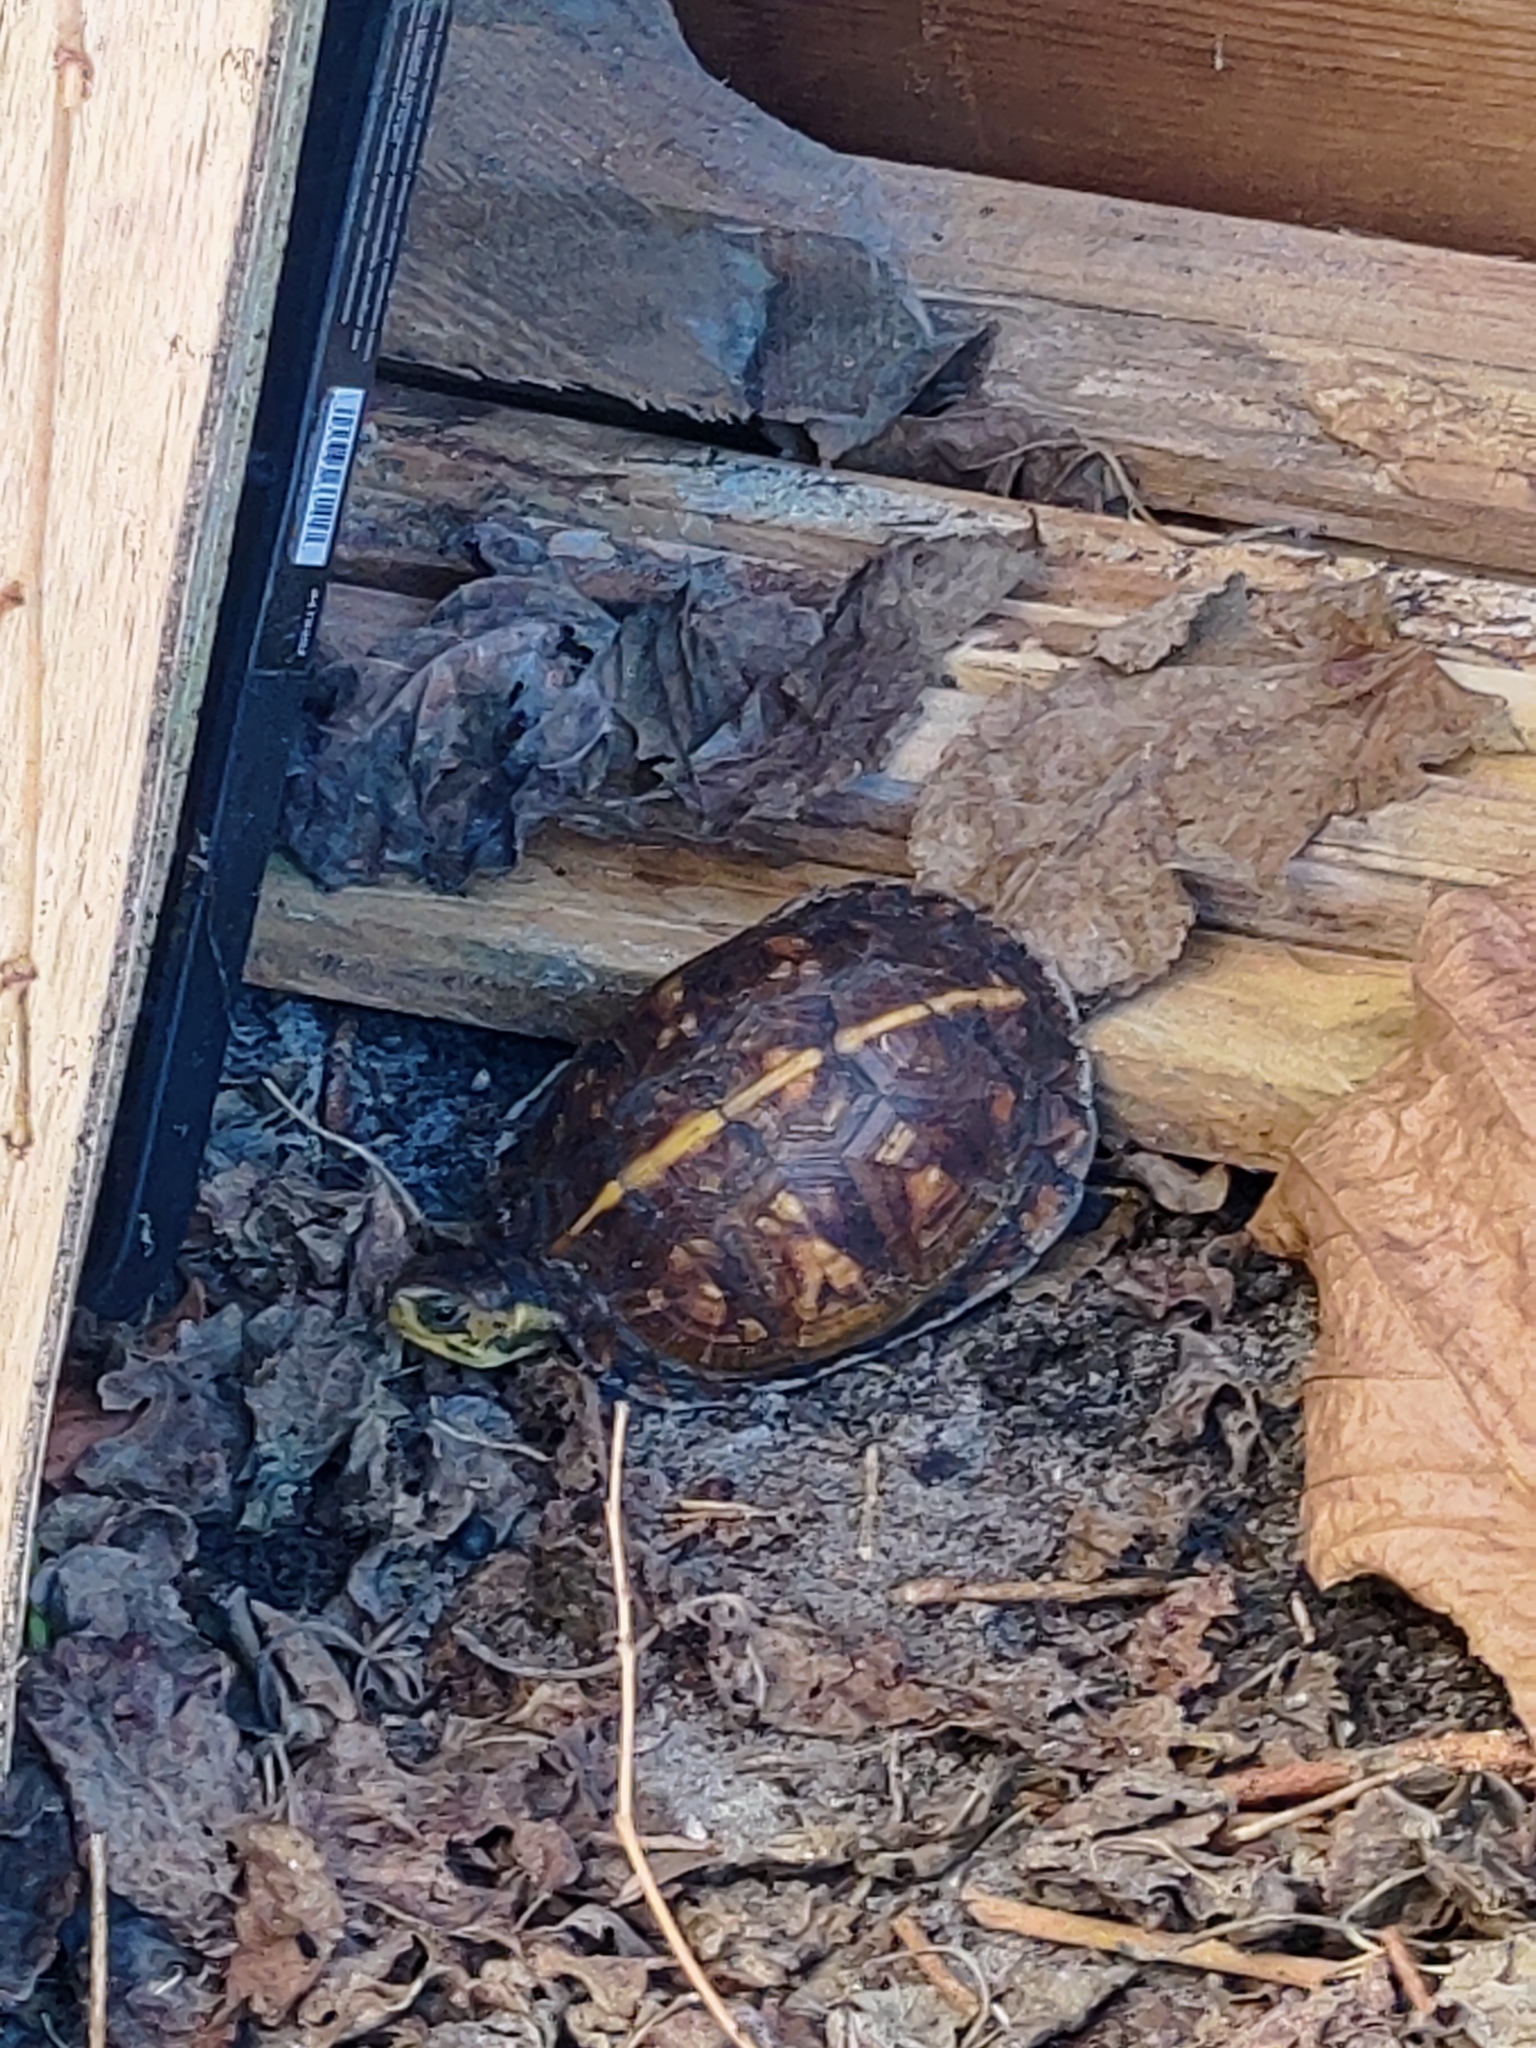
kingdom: Animalia
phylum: Chordata
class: Testudines
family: Emydidae
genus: Terrapene
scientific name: Terrapene carolina
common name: Common box turtle
